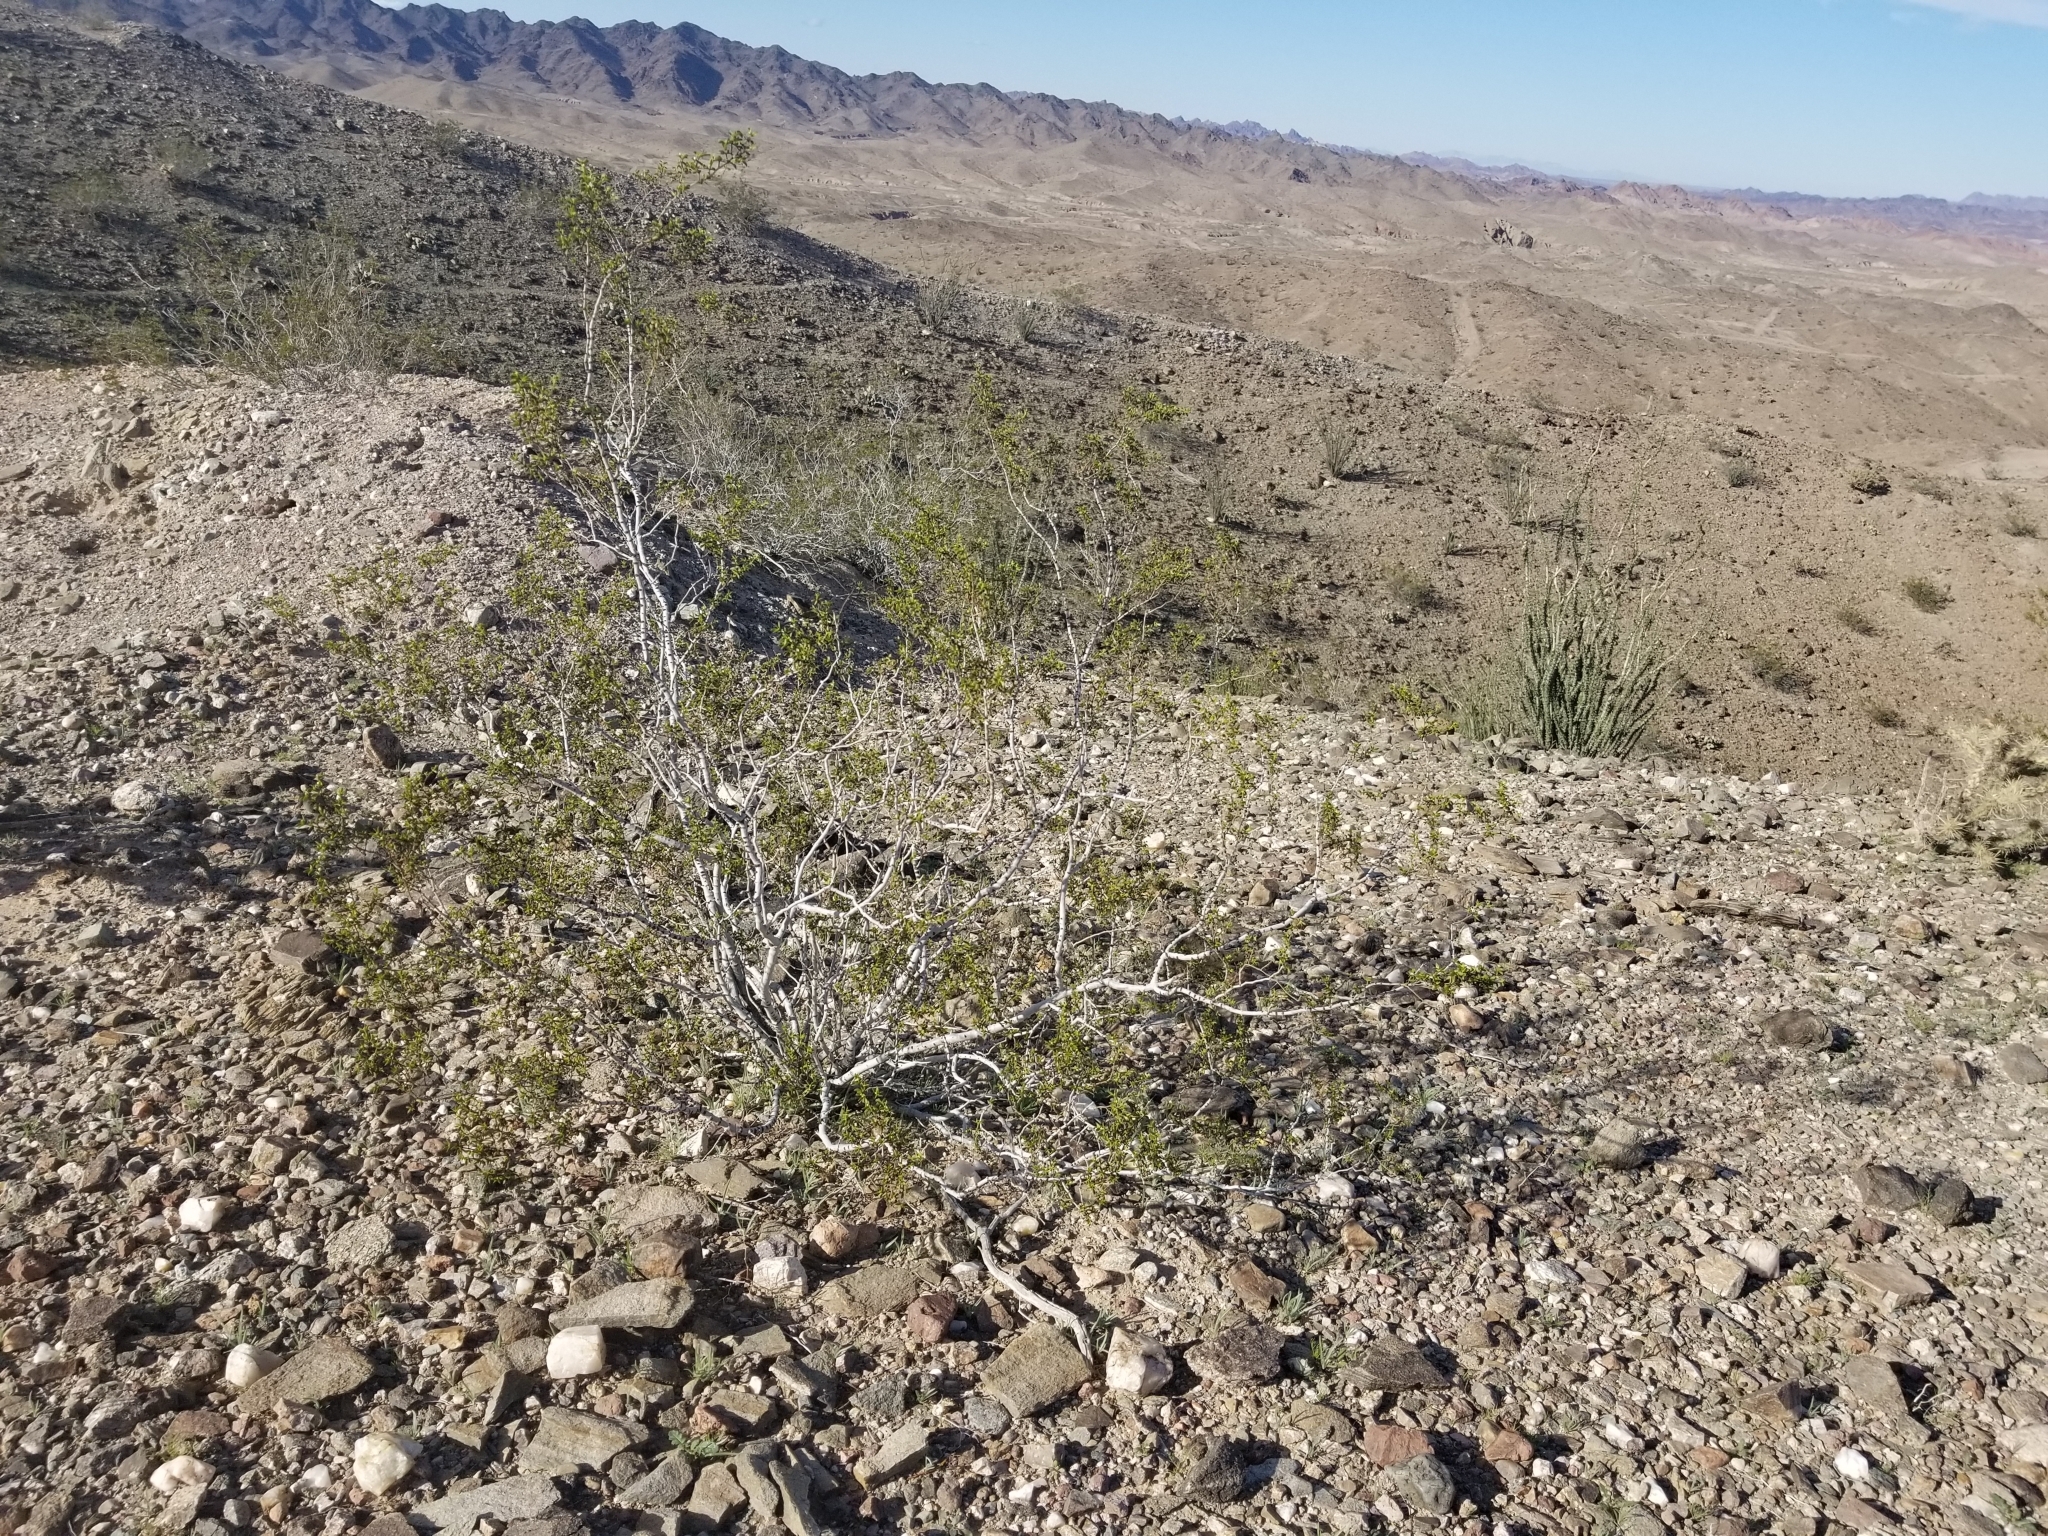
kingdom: Plantae
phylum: Tracheophyta
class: Magnoliopsida
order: Zygophyllales
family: Zygophyllaceae
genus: Larrea
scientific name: Larrea tridentata
